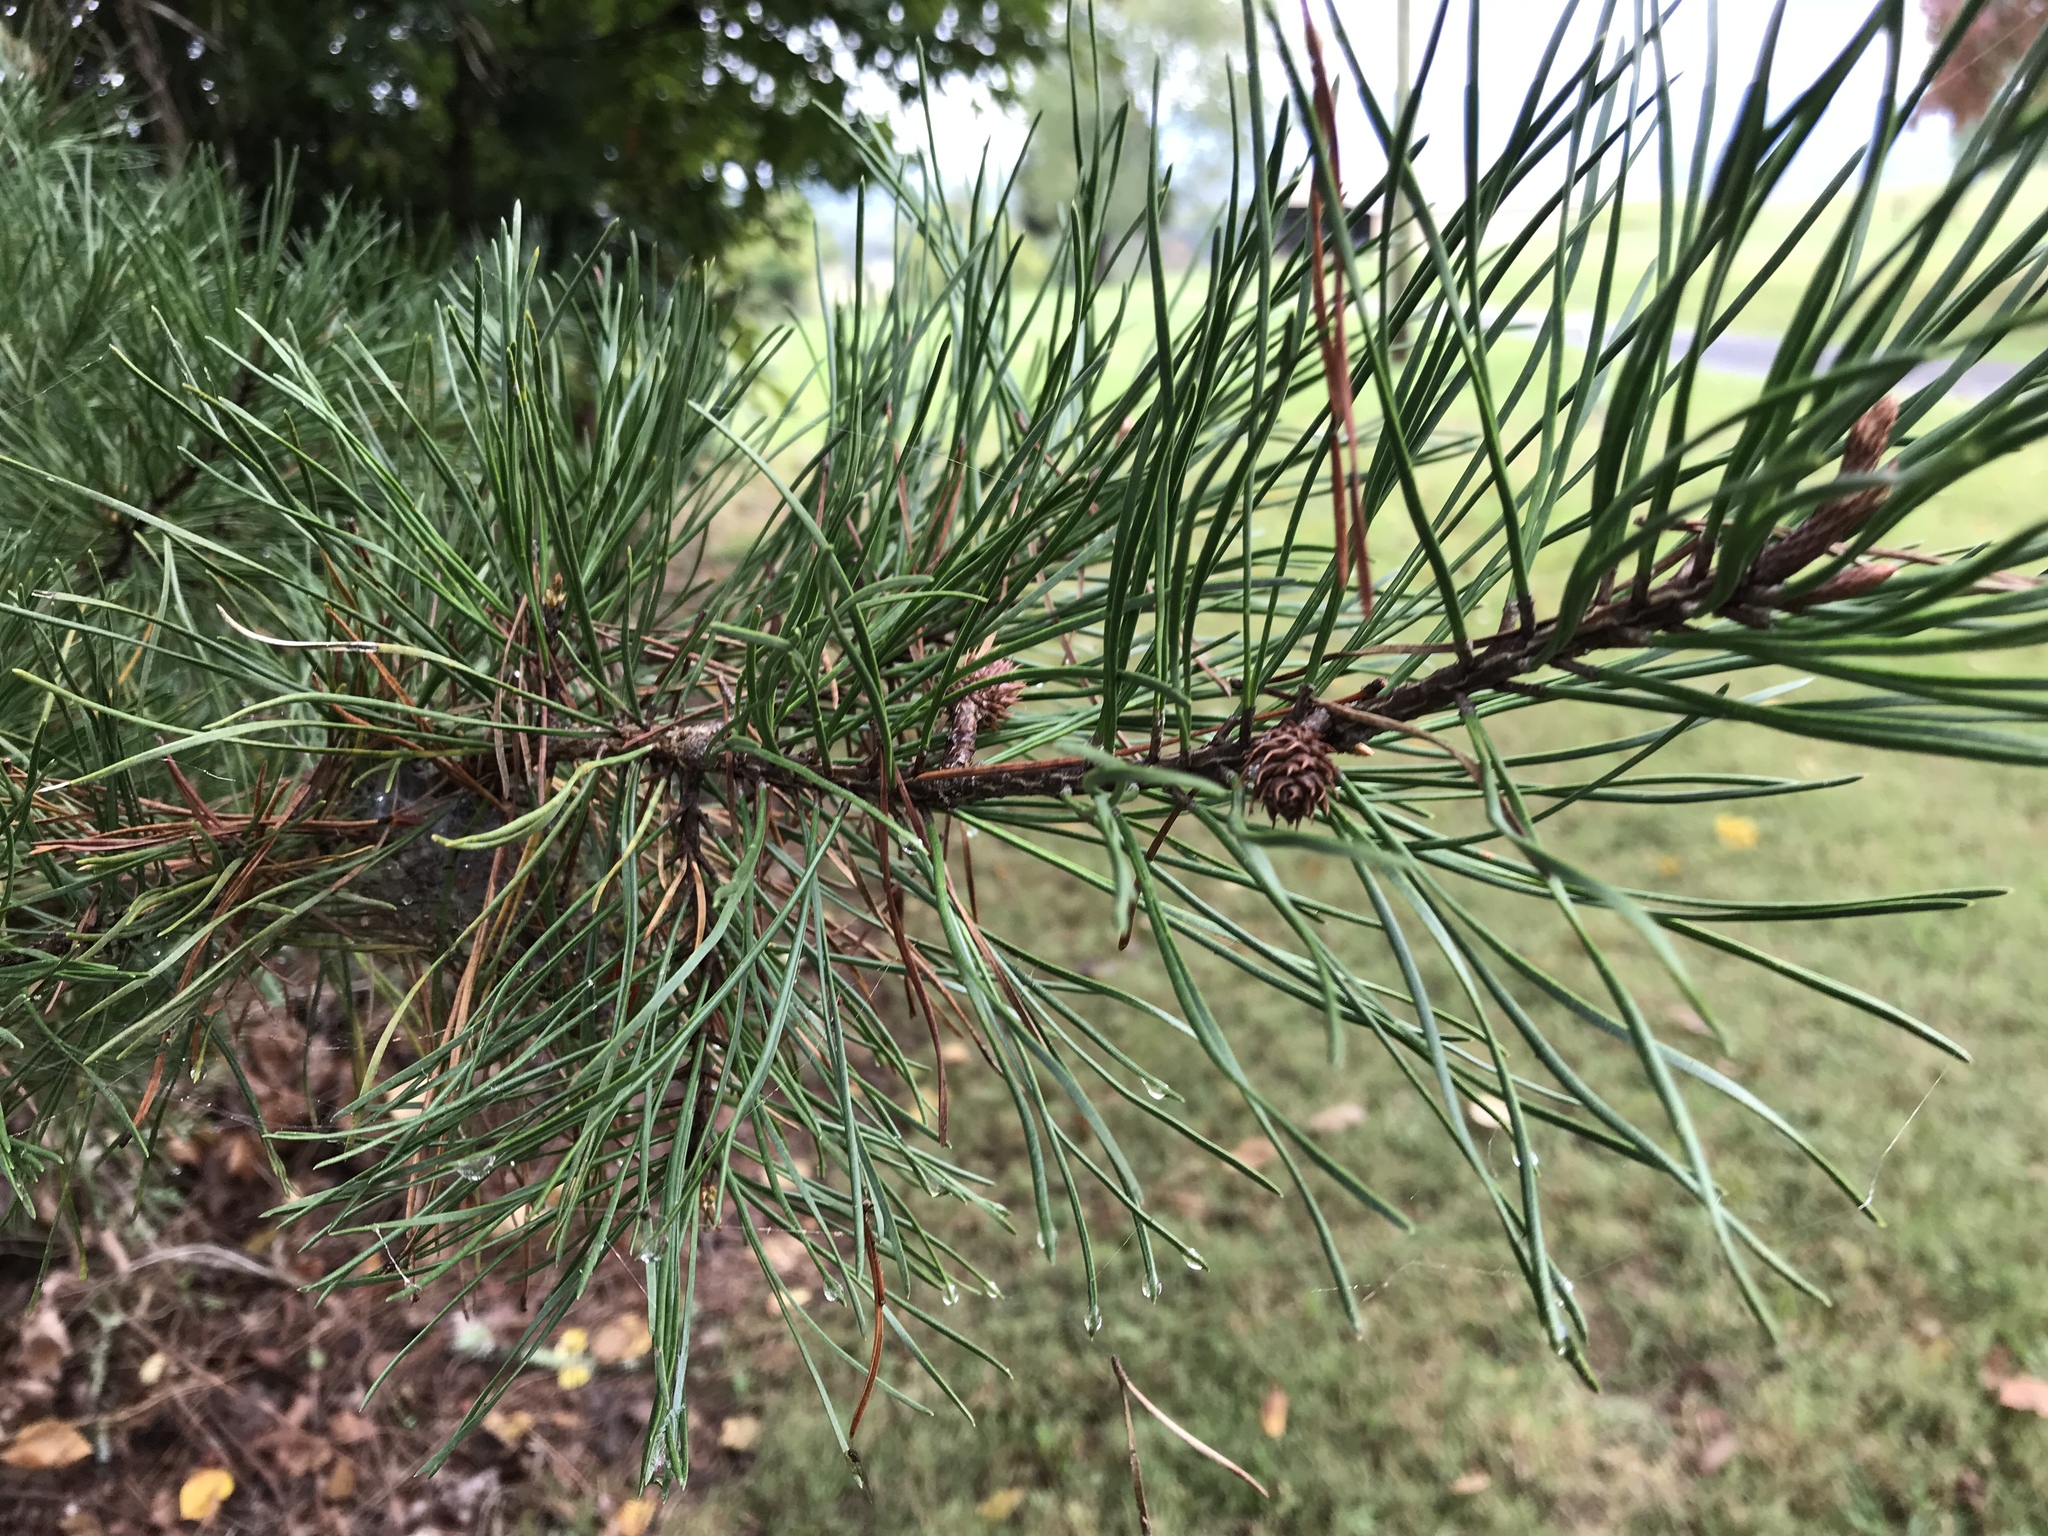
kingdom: Plantae
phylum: Tracheophyta
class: Pinopsida
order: Pinales
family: Pinaceae
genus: Pinus
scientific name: Pinus virginiana
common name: Scrub pine
